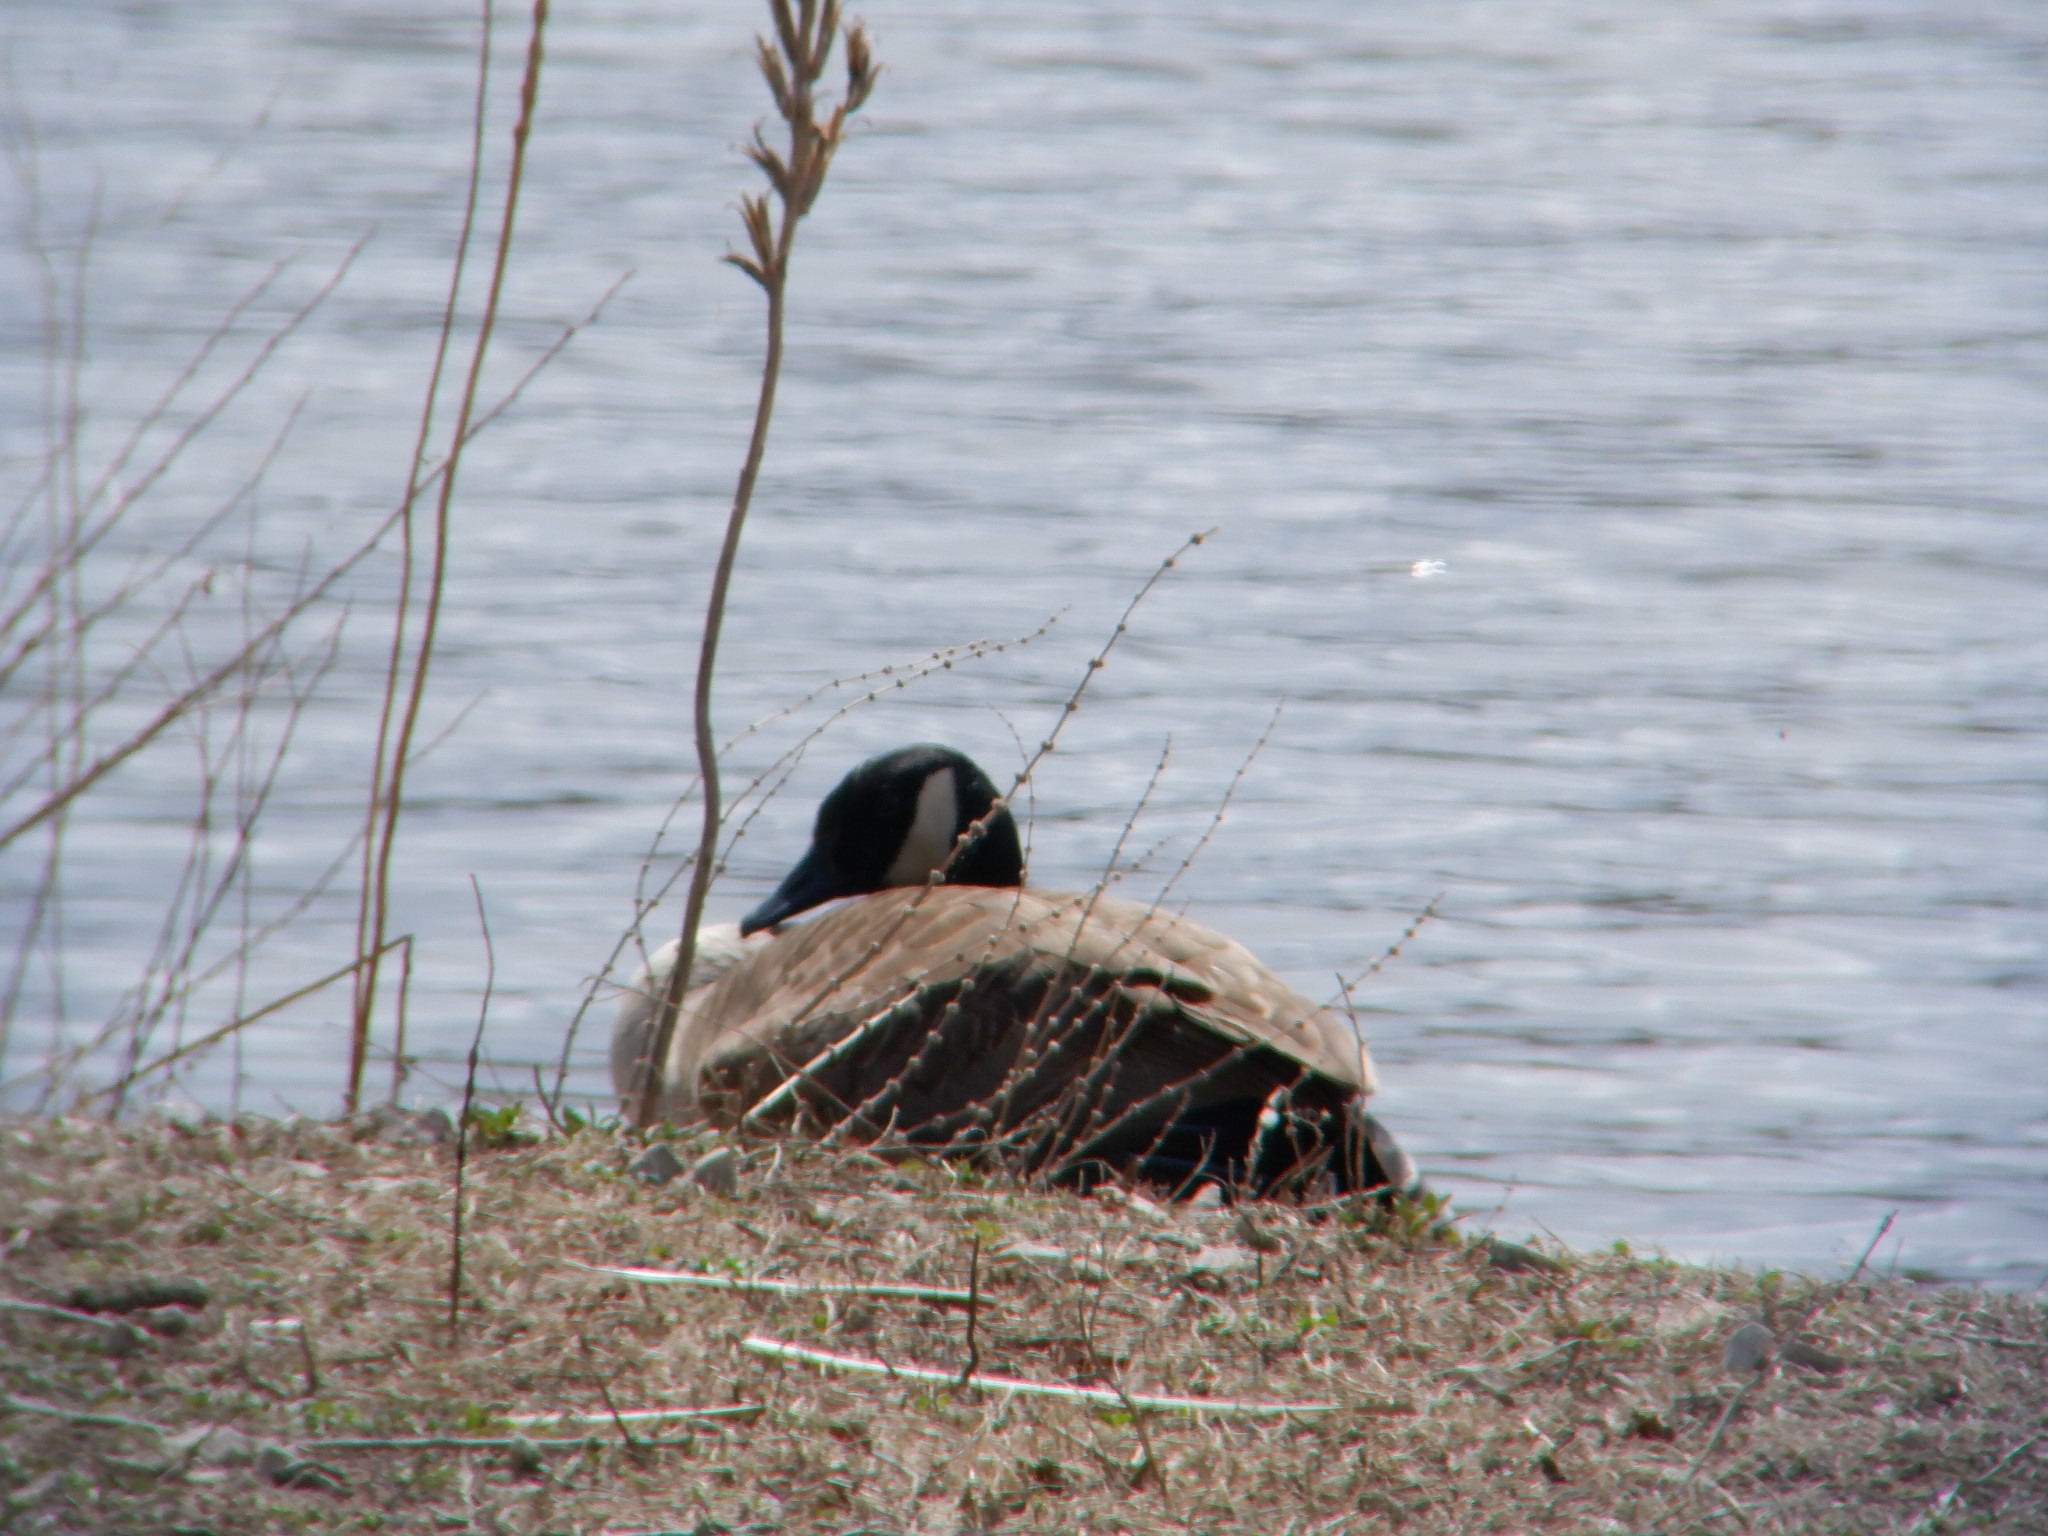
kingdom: Animalia
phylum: Chordata
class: Aves
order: Anseriformes
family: Anatidae
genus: Branta
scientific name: Branta canadensis
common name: Canada goose
